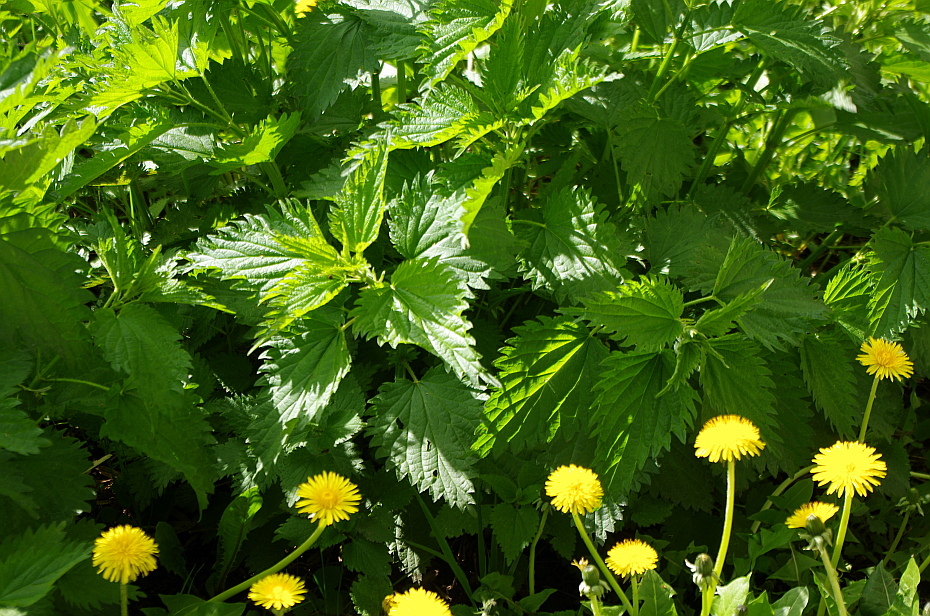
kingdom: Plantae
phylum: Tracheophyta
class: Magnoliopsida
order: Rosales
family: Urticaceae
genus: Urtica
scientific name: Urtica dioica
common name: Common nettle
